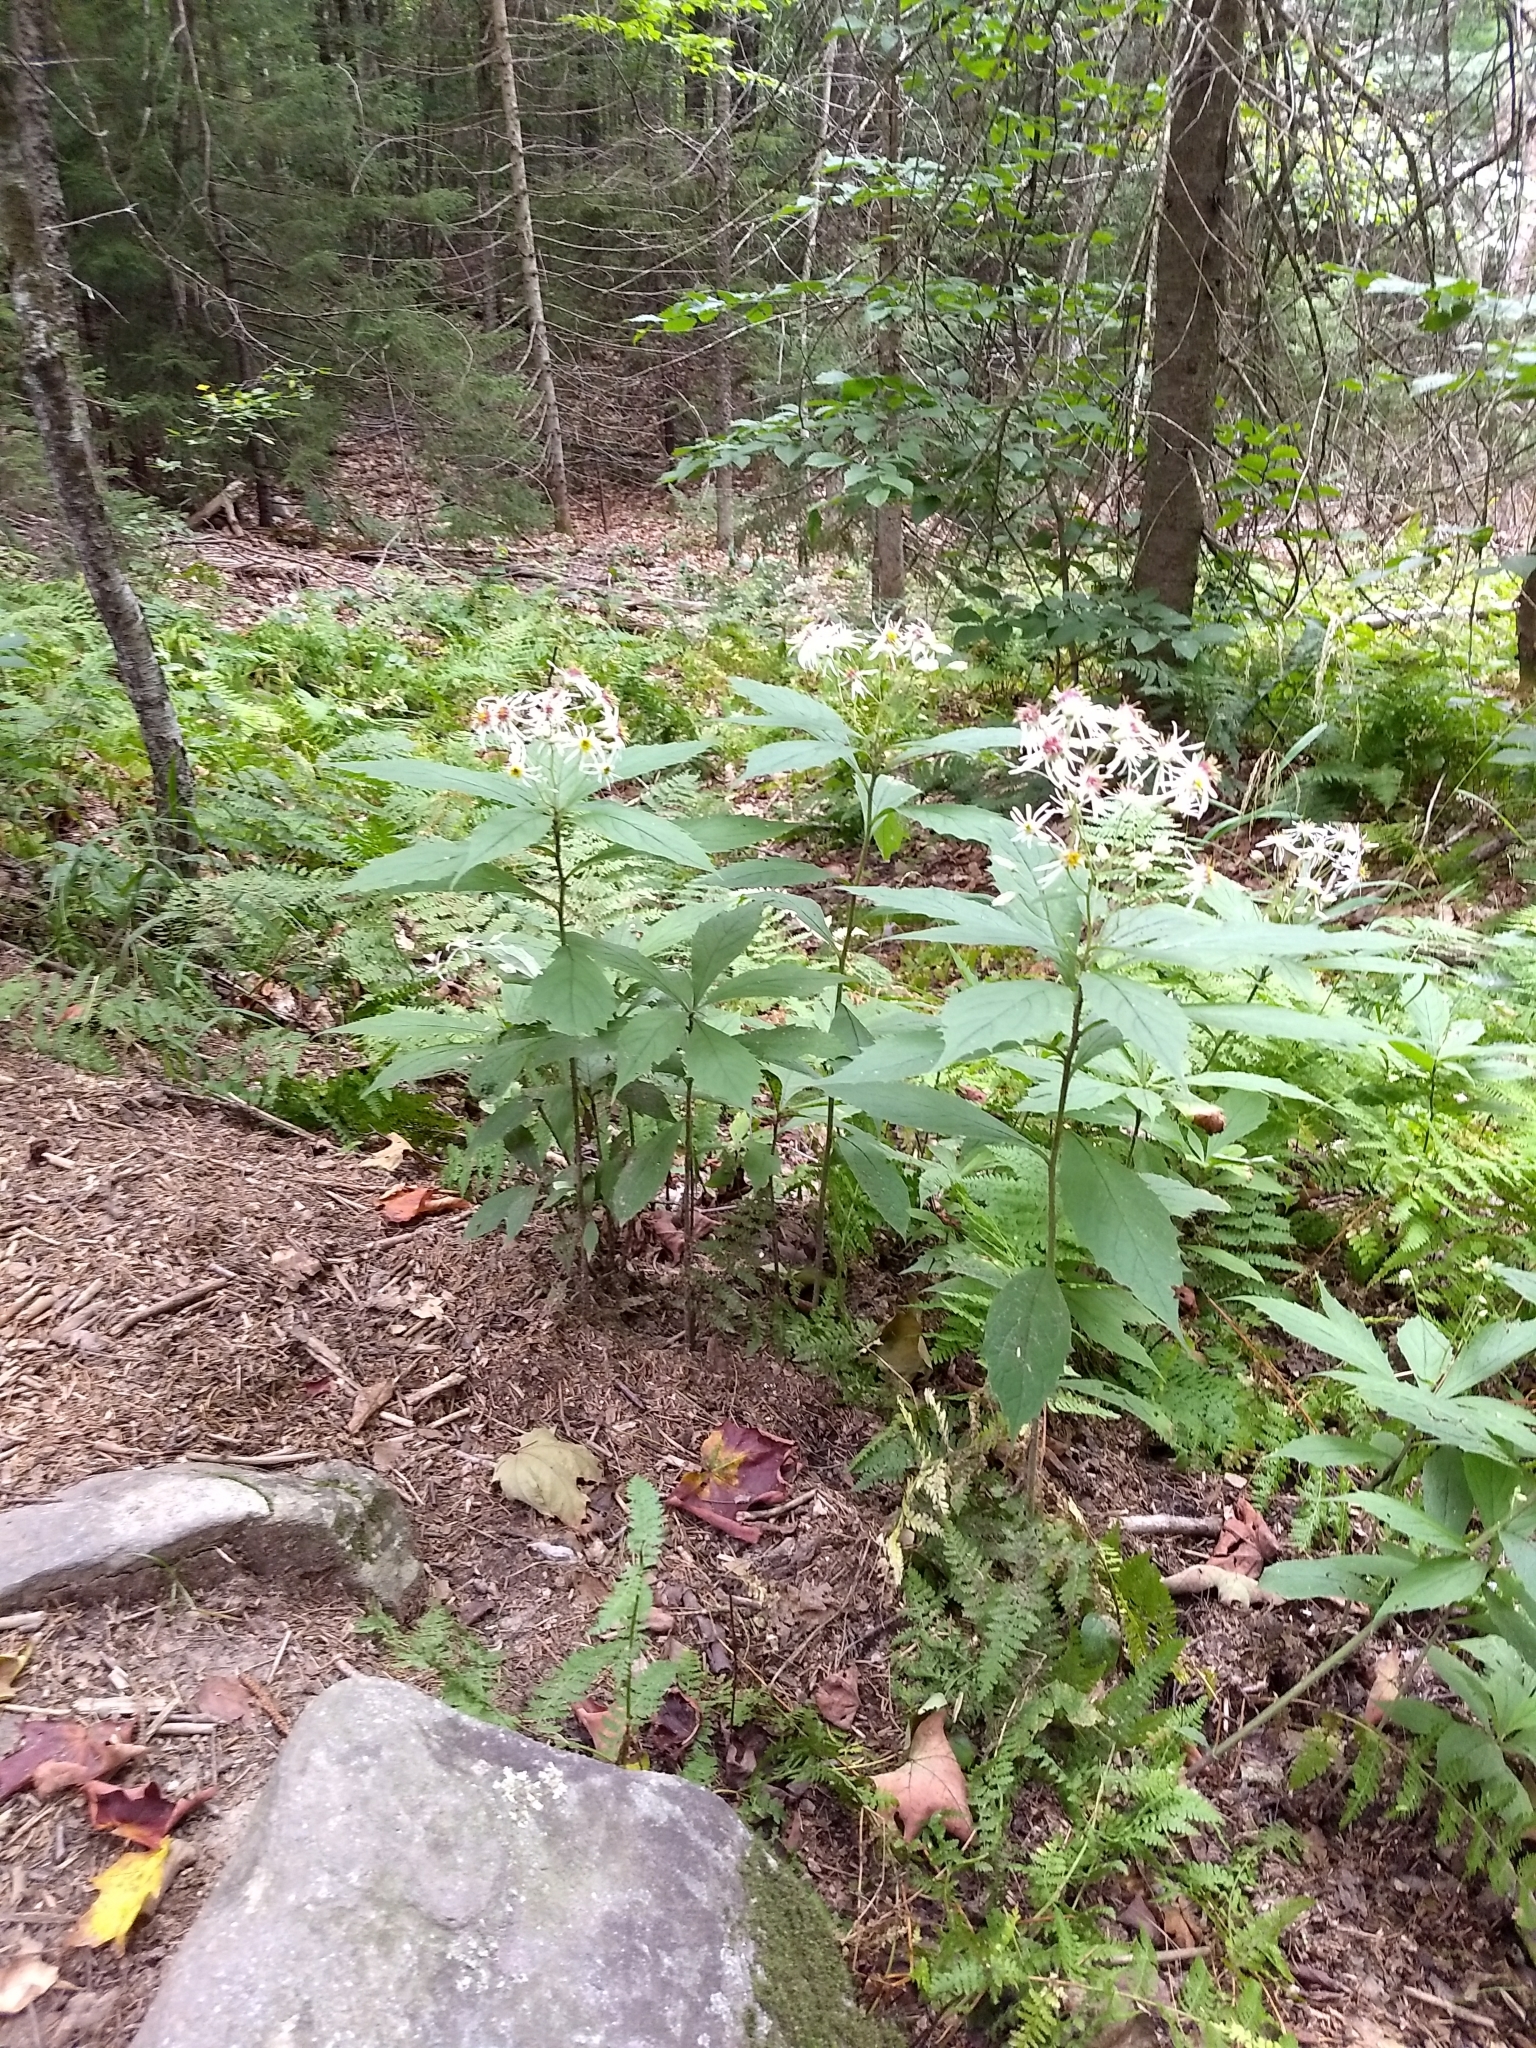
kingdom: Plantae
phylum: Tracheophyta
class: Magnoliopsida
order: Asterales
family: Asteraceae
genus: Oclemena
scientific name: Oclemena acuminata
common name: Mountain aster
